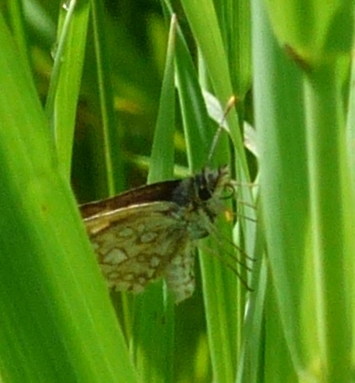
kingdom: Animalia
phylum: Arthropoda
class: Insecta
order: Lepidoptera
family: Hesperiidae
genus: Carterocephalus
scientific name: Carterocephalus mandan
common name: Arctic skipperling
